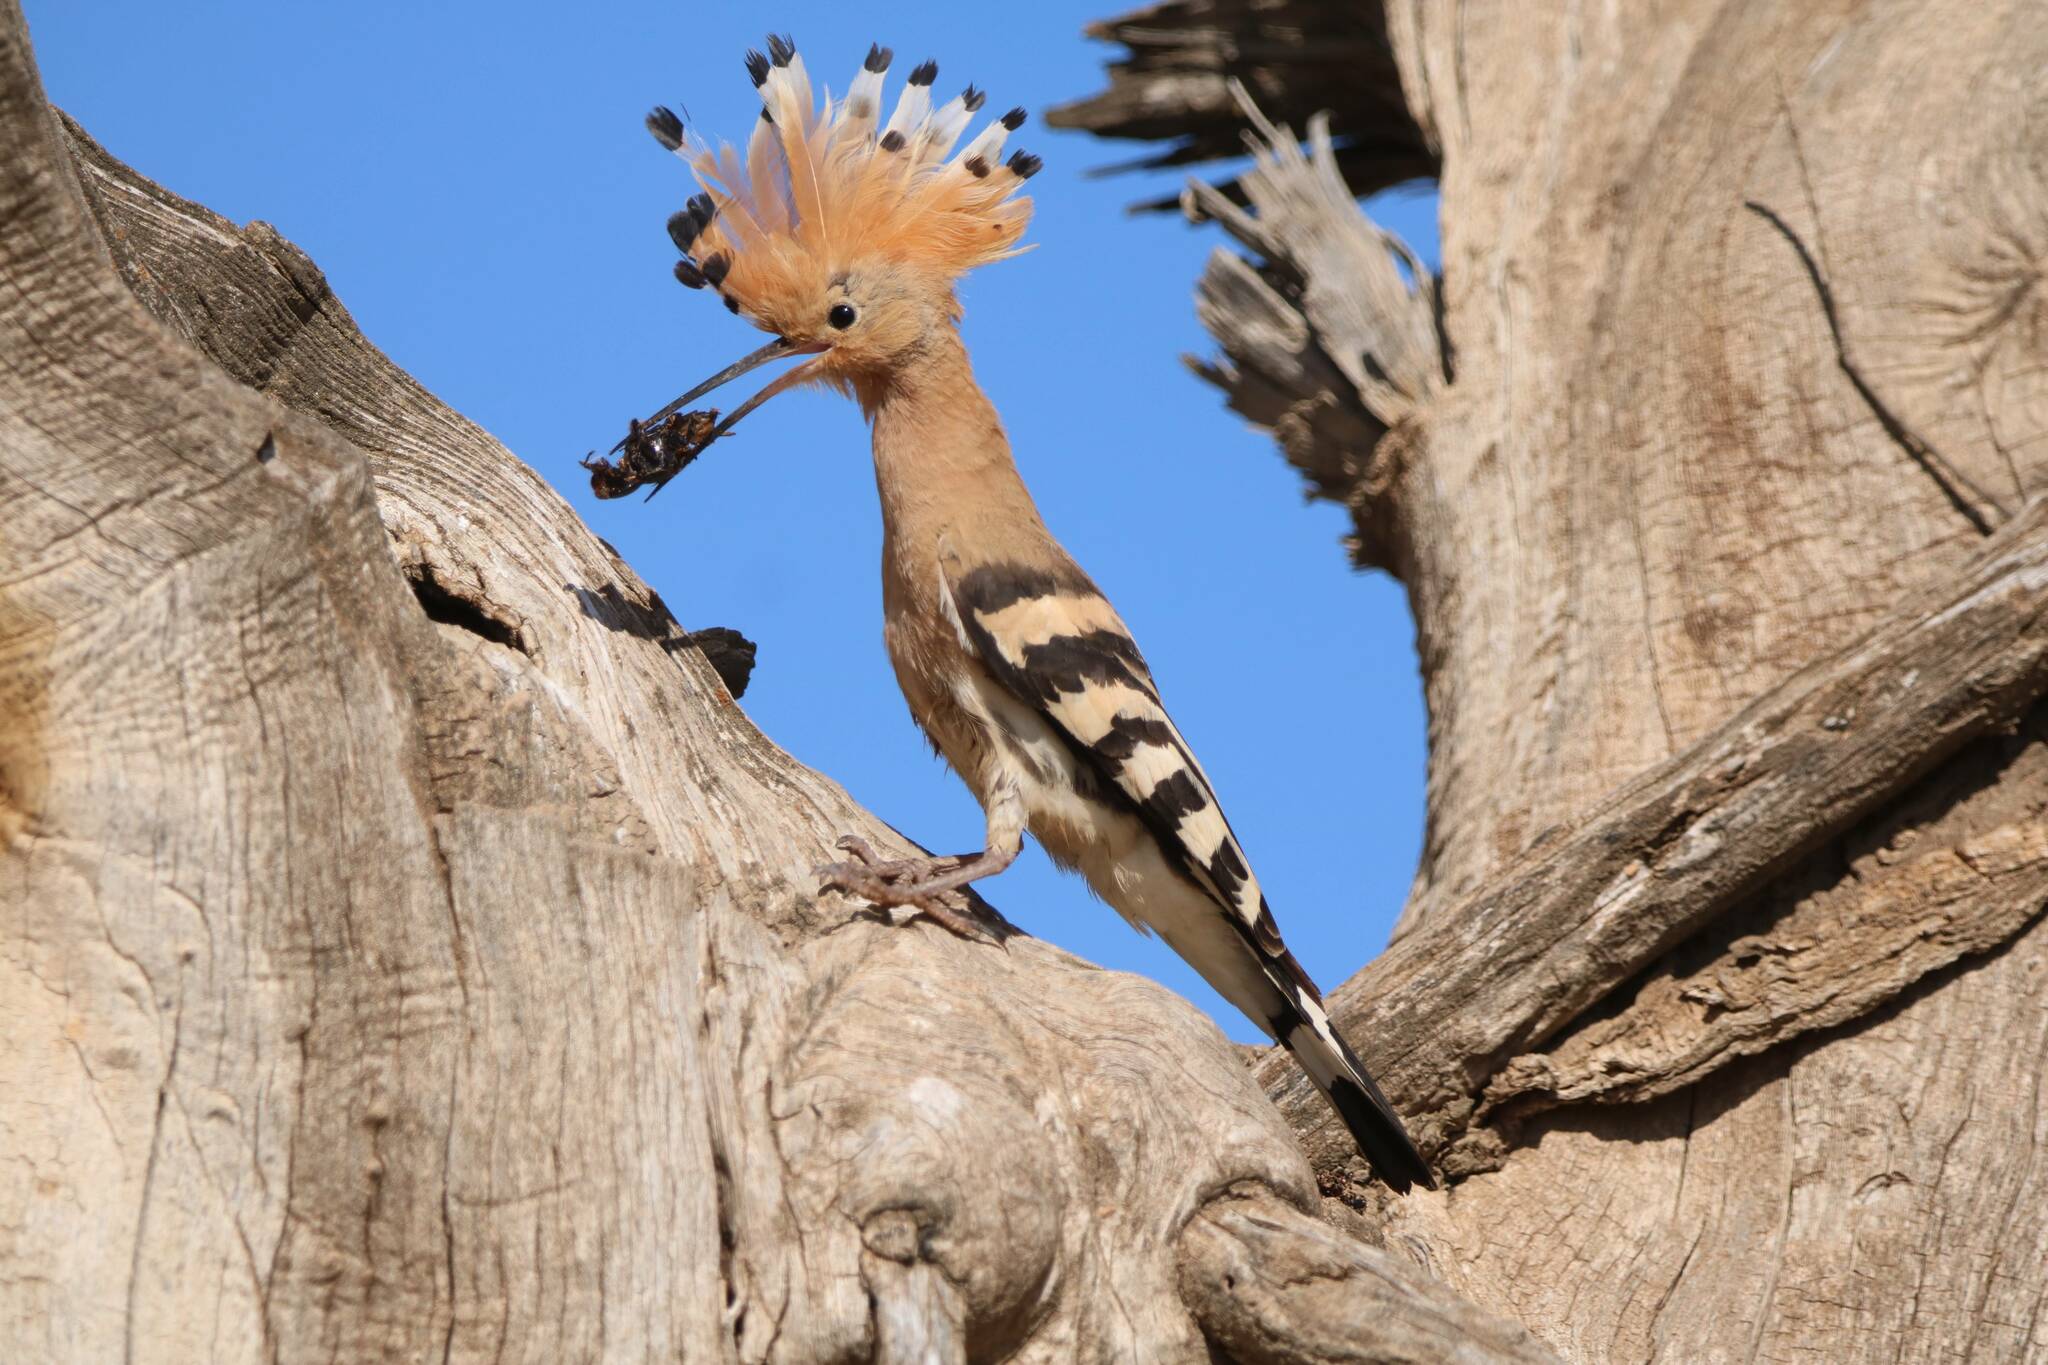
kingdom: Animalia
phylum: Chordata
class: Aves
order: Bucerotiformes
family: Upupidae
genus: Upupa
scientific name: Upupa epops
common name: Eurasian hoopoe
